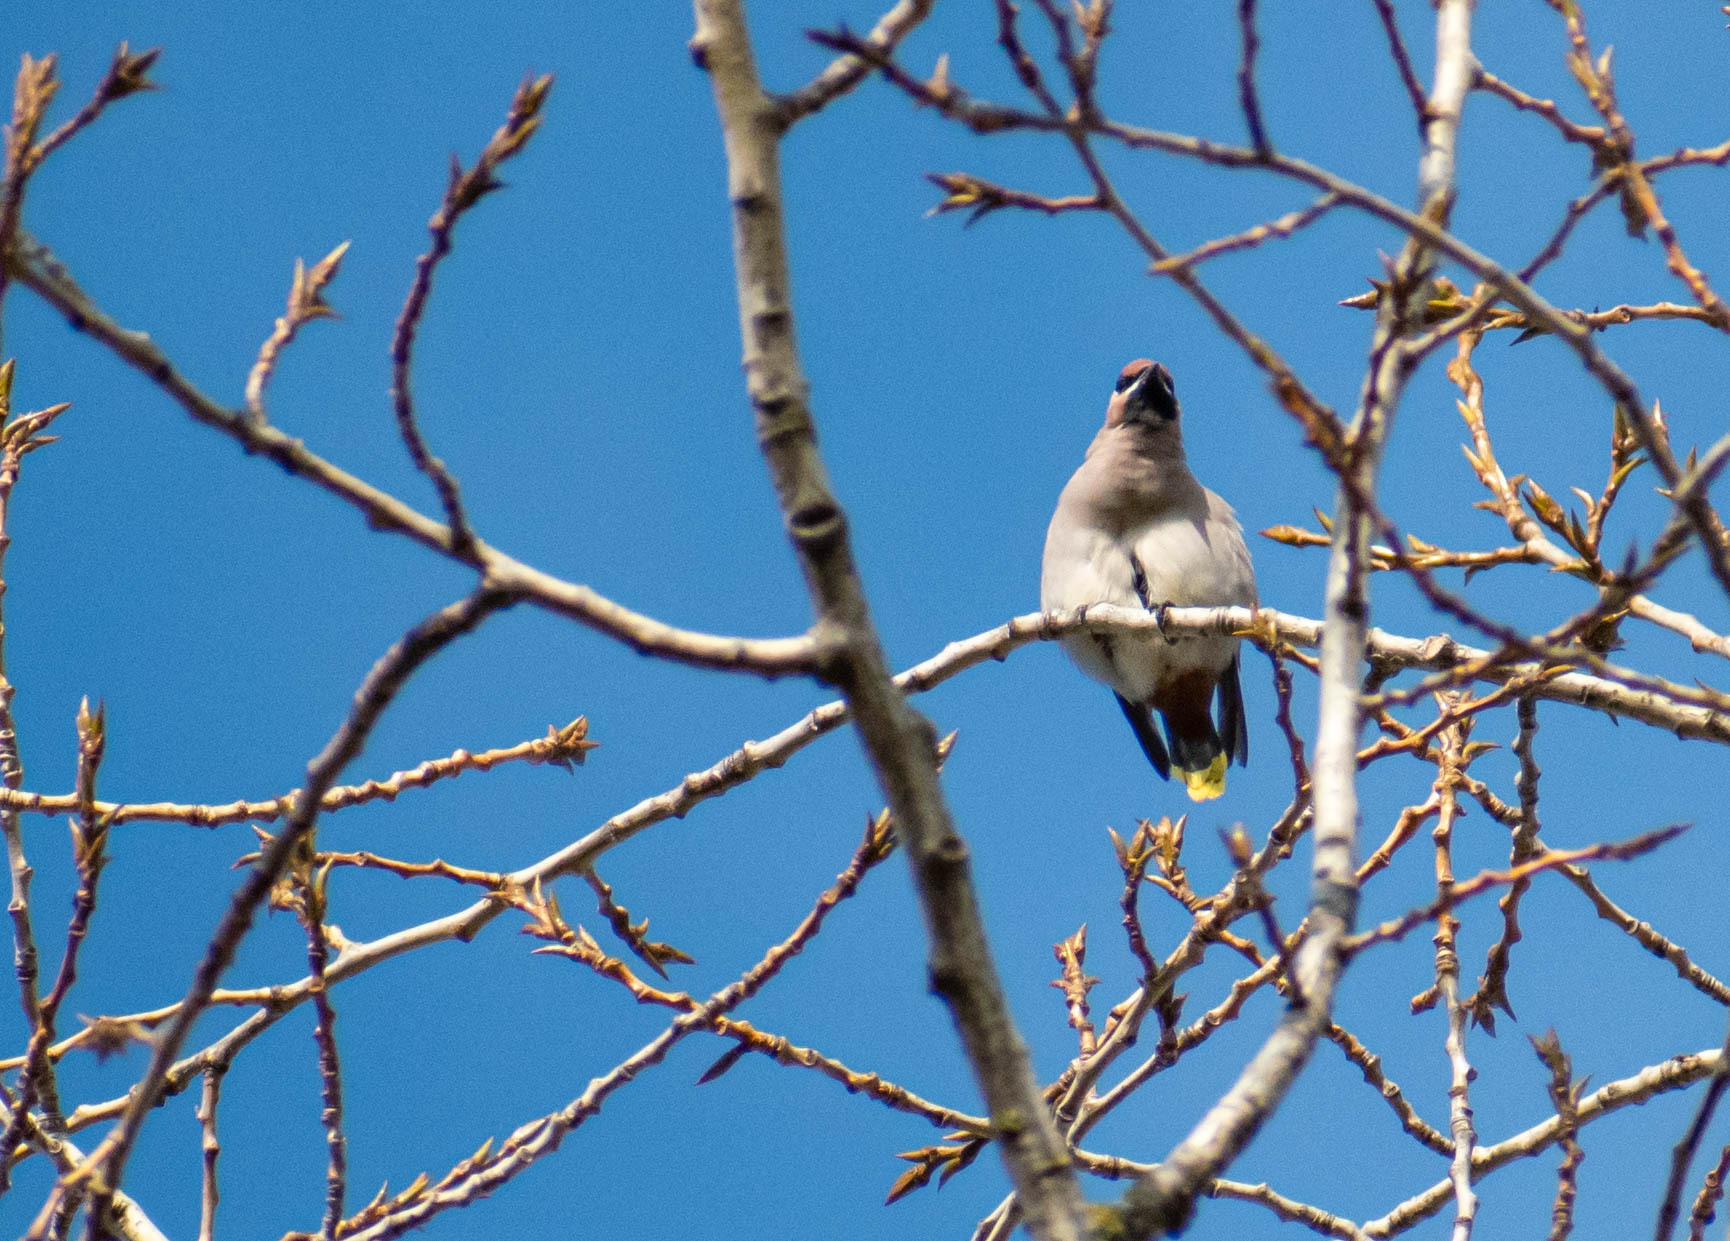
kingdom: Animalia
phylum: Chordata
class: Aves
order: Passeriformes
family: Bombycillidae
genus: Bombycilla
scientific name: Bombycilla garrulus
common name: Bohemian waxwing
